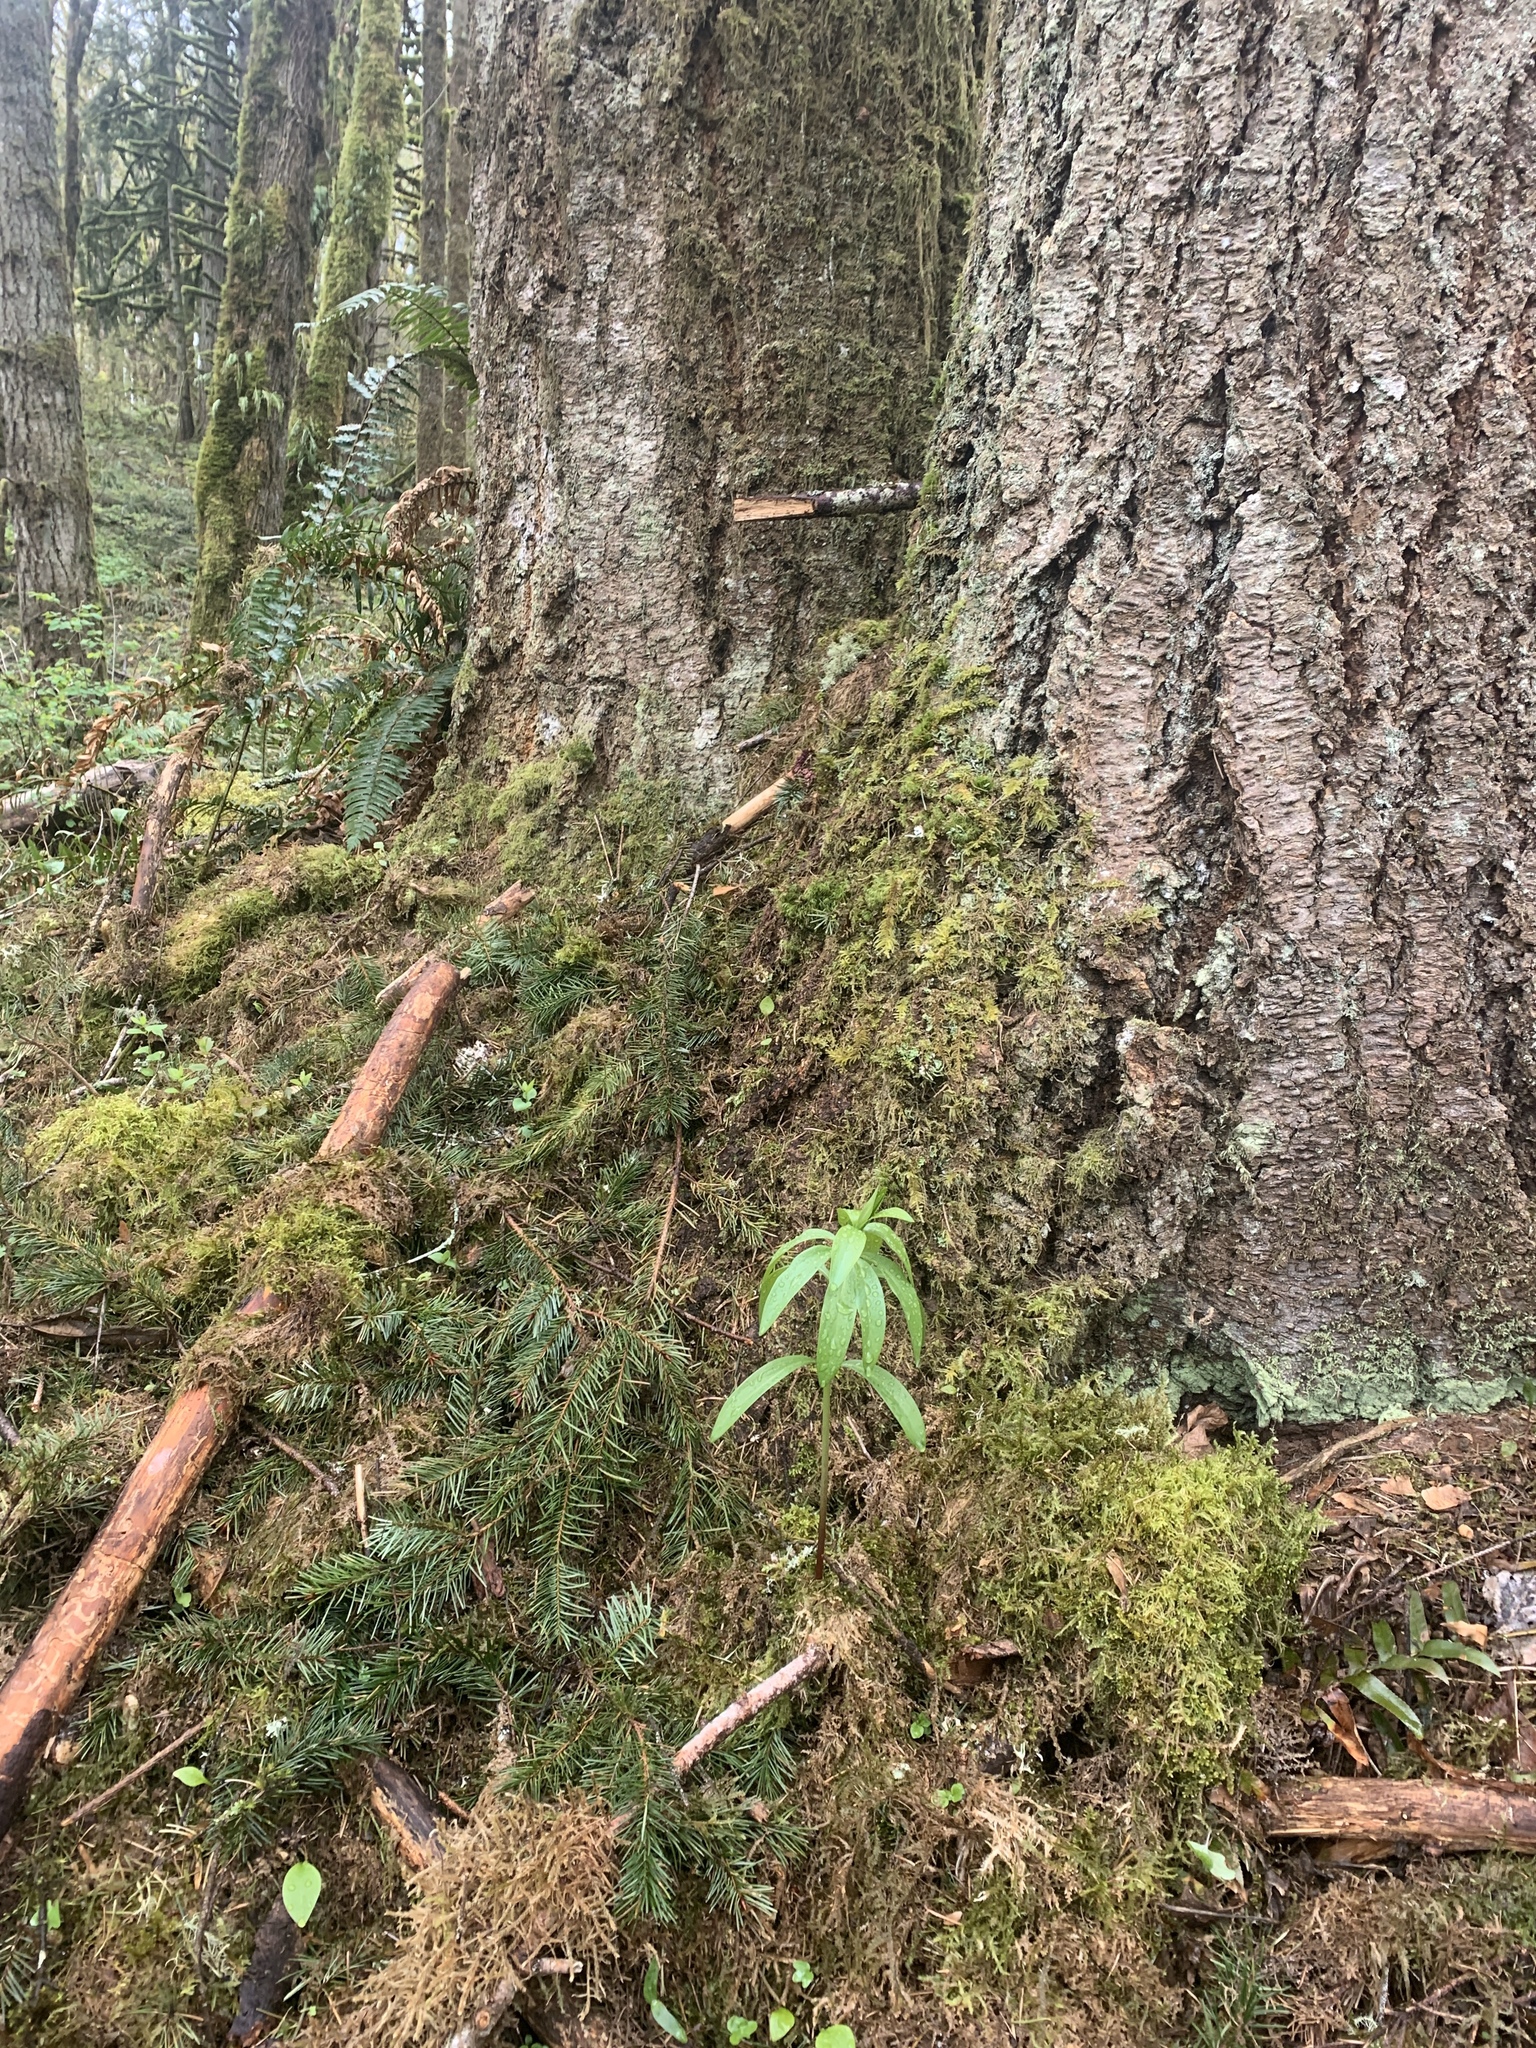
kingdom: Plantae
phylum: Tracheophyta
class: Liliopsida
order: Liliales
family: Liliaceae
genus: Lilium
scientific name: Lilium columbianum
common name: Columbia lily
